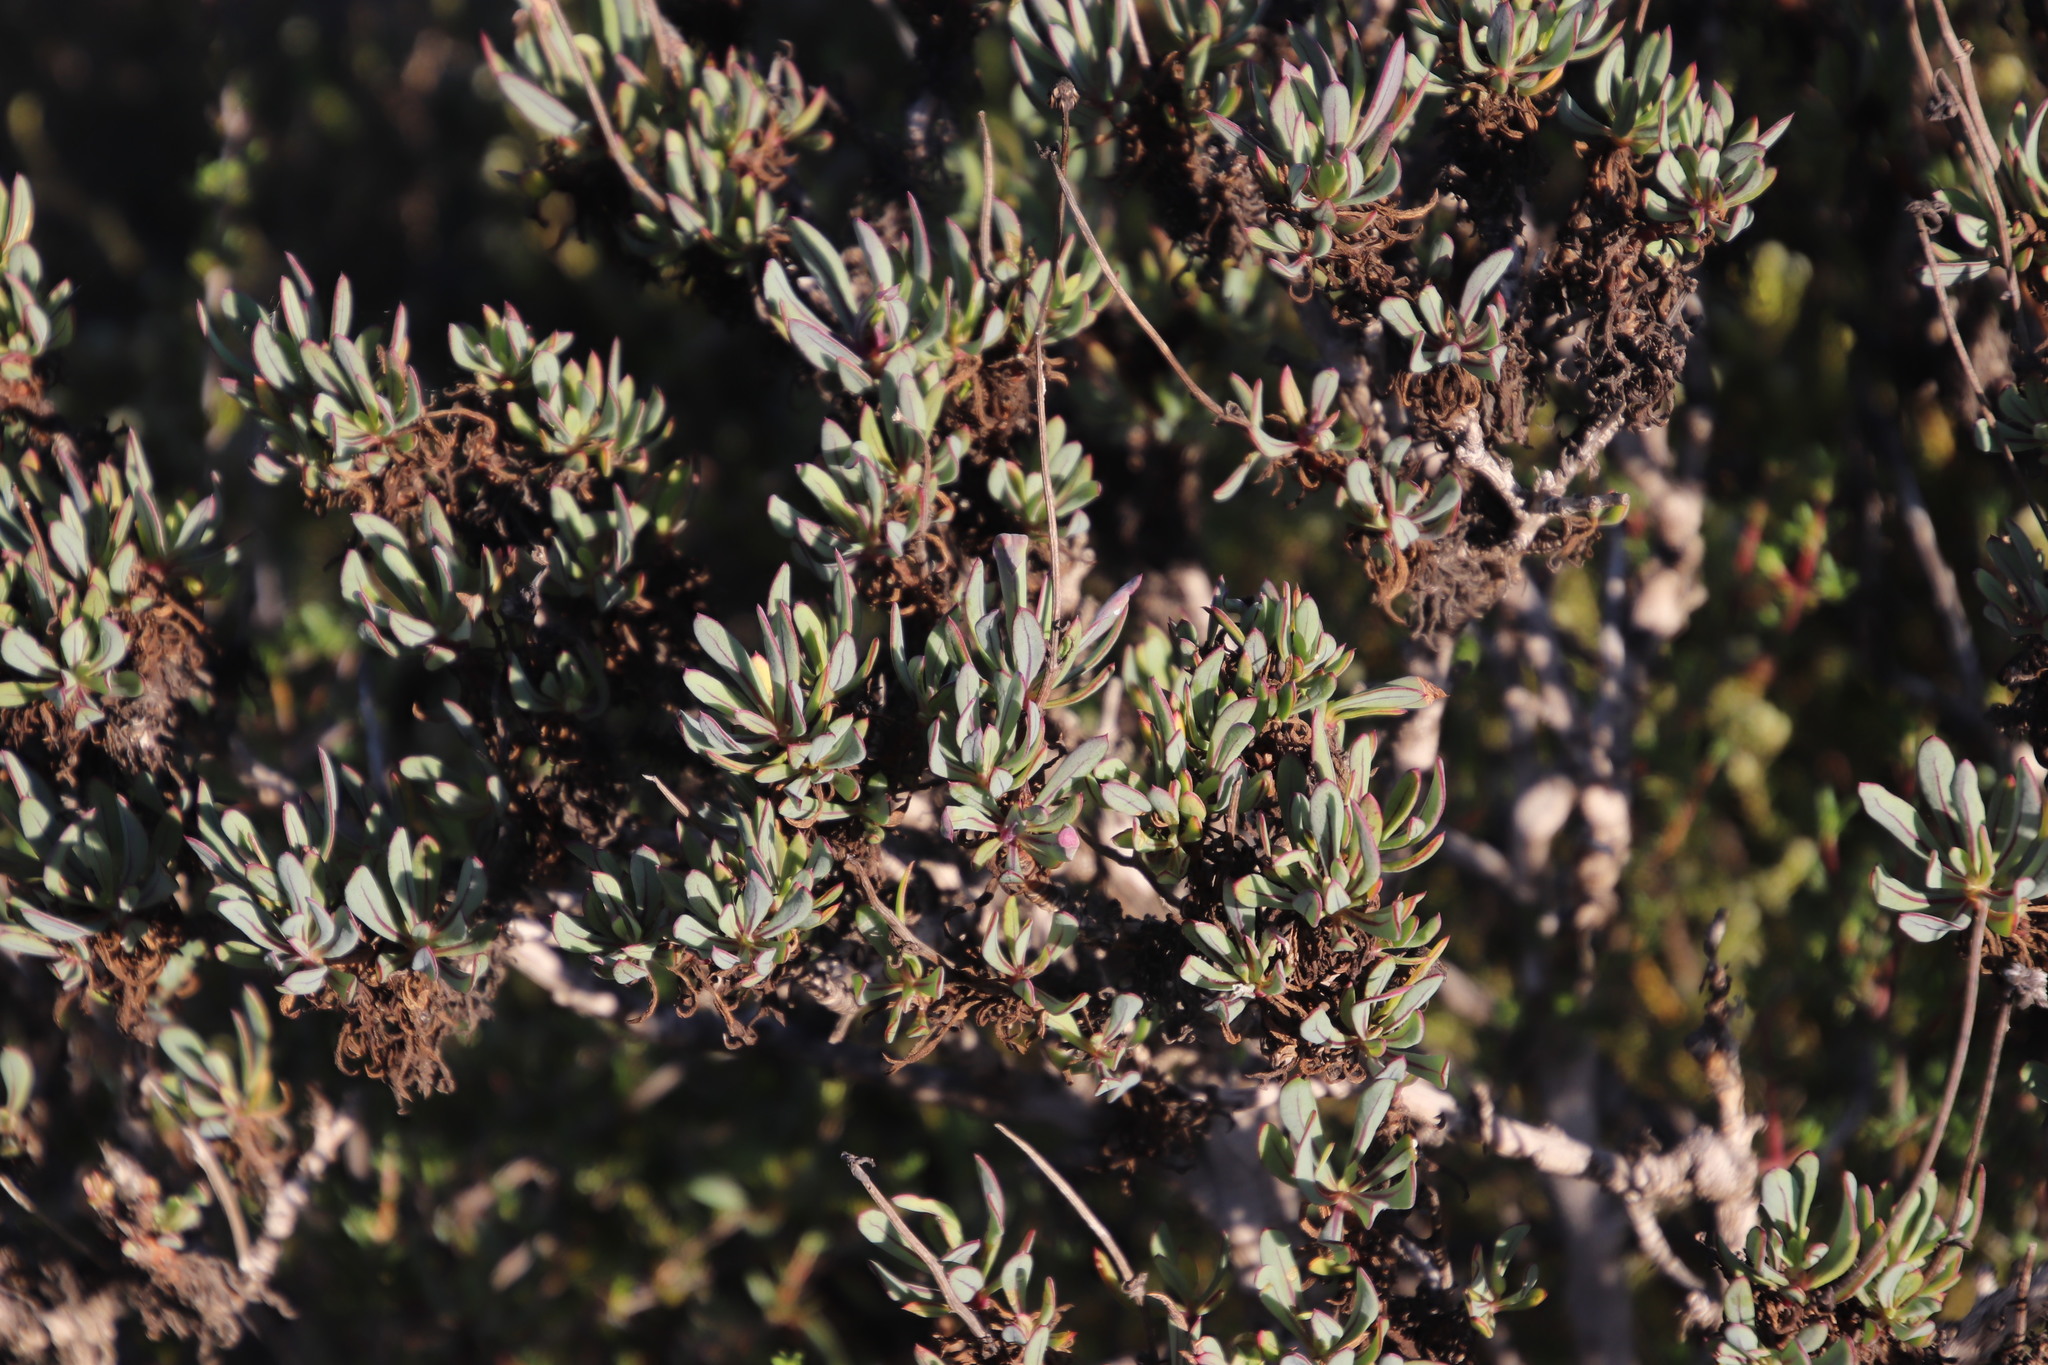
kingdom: Plantae
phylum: Tracheophyta
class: Magnoliopsida
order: Asterales
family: Asteraceae
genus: Othonna
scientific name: Othonna coronopifolia
